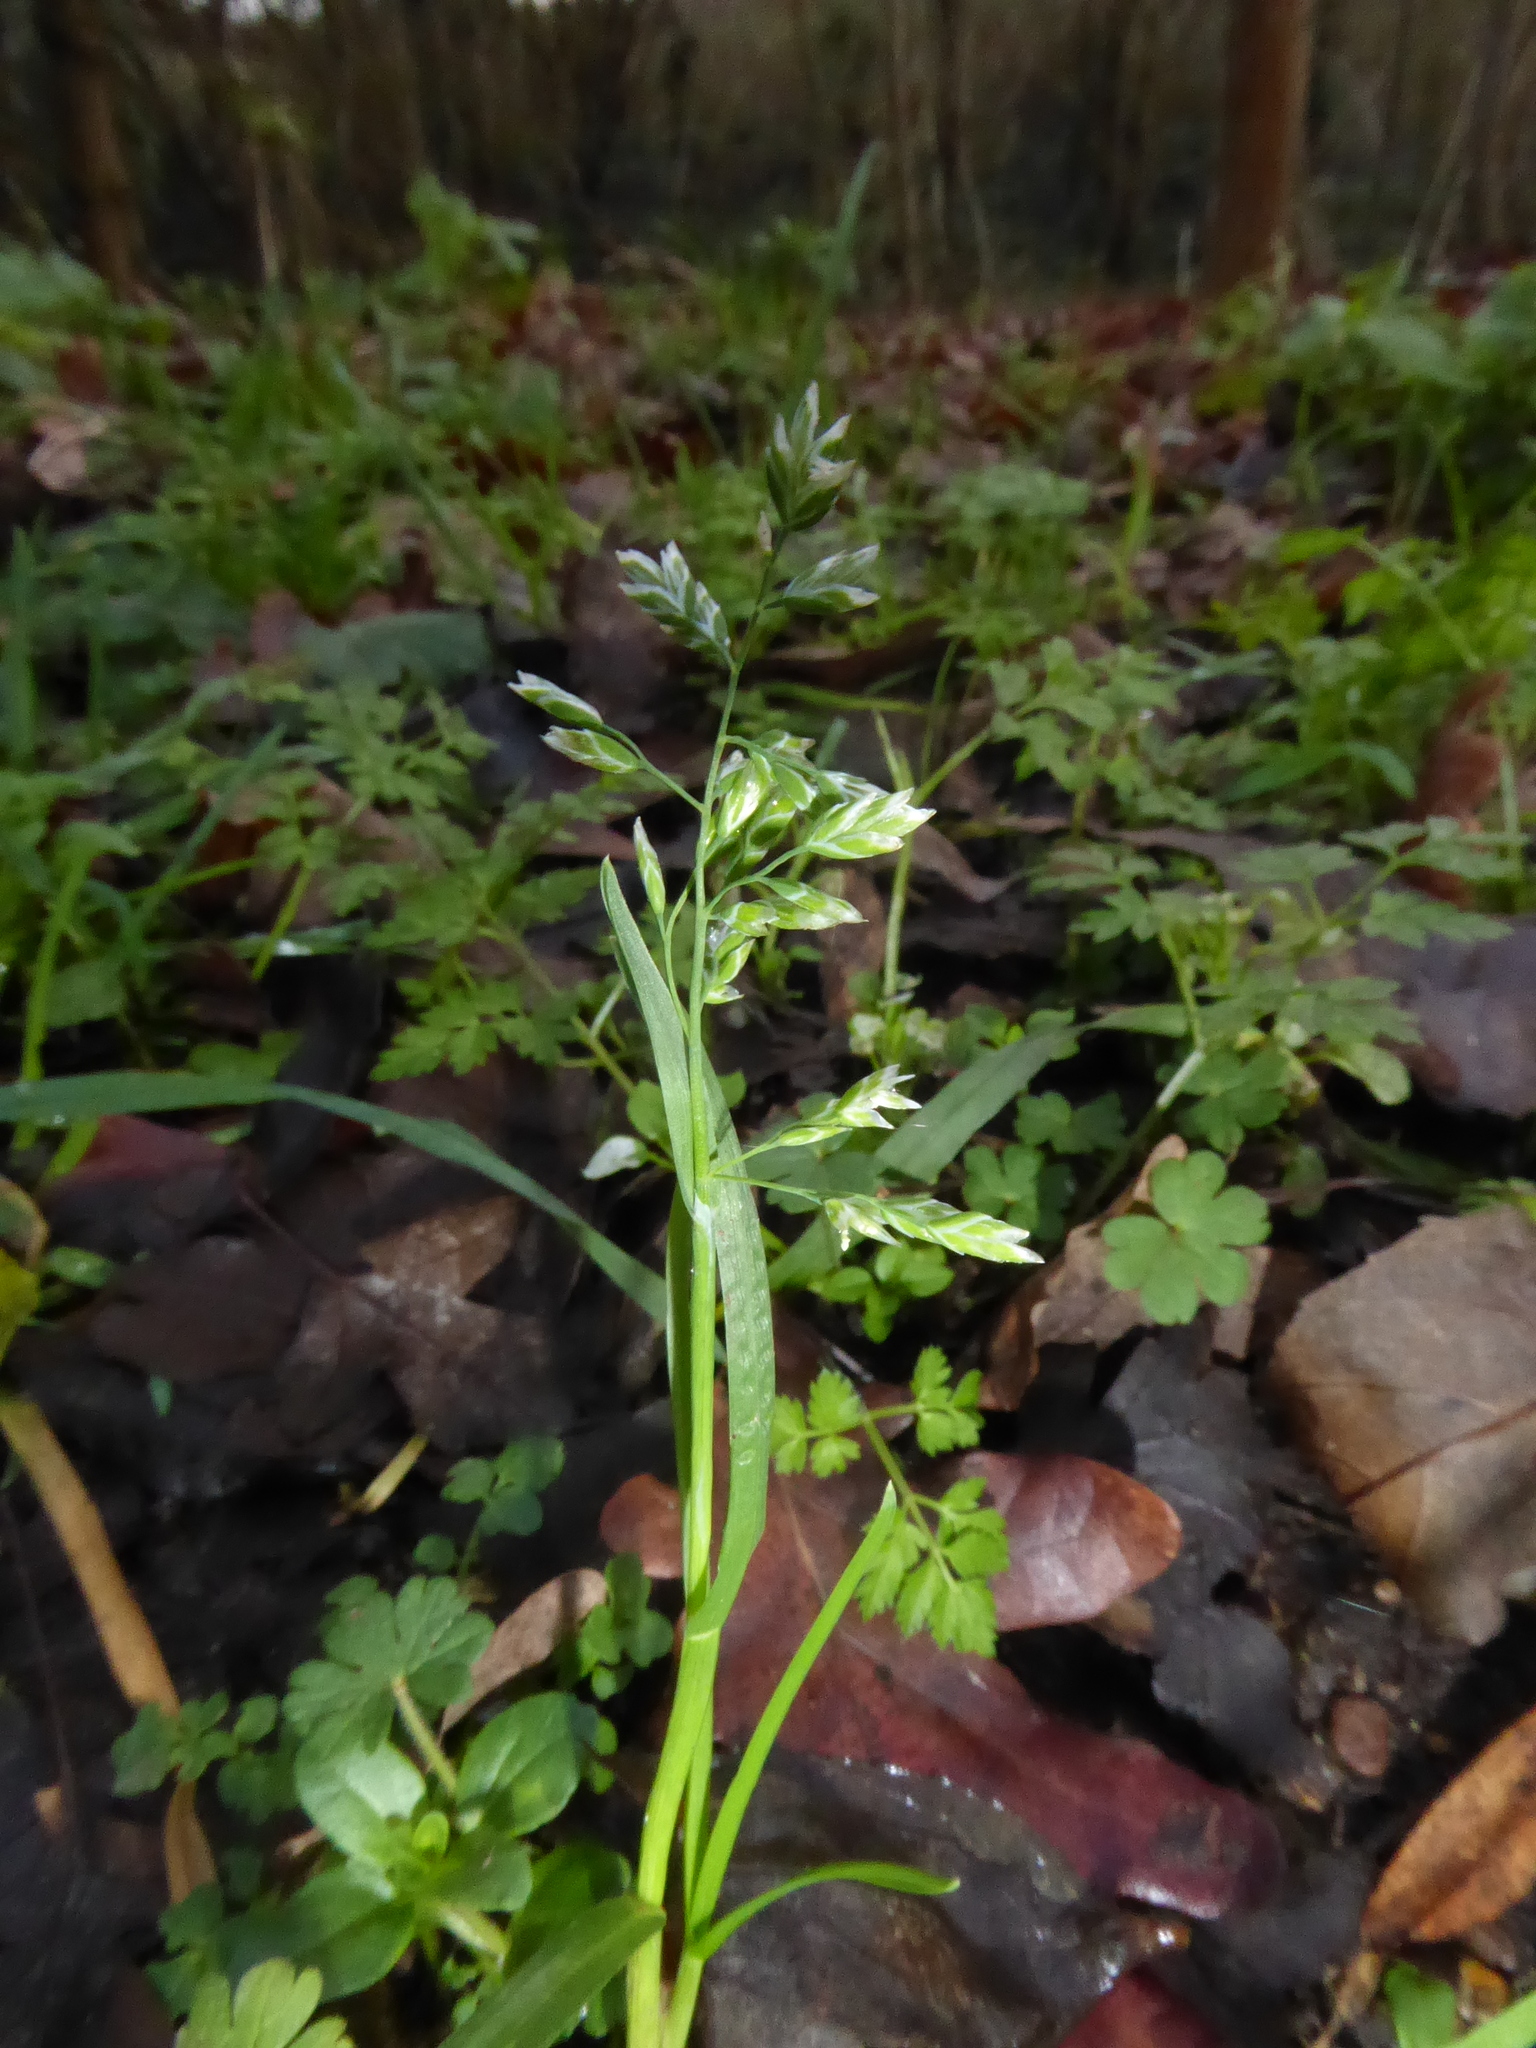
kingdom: Plantae
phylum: Tracheophyta
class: Liliopsida
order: Poales
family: Poaceae
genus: Poa
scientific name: Poa annua
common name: Annual bluegrass
